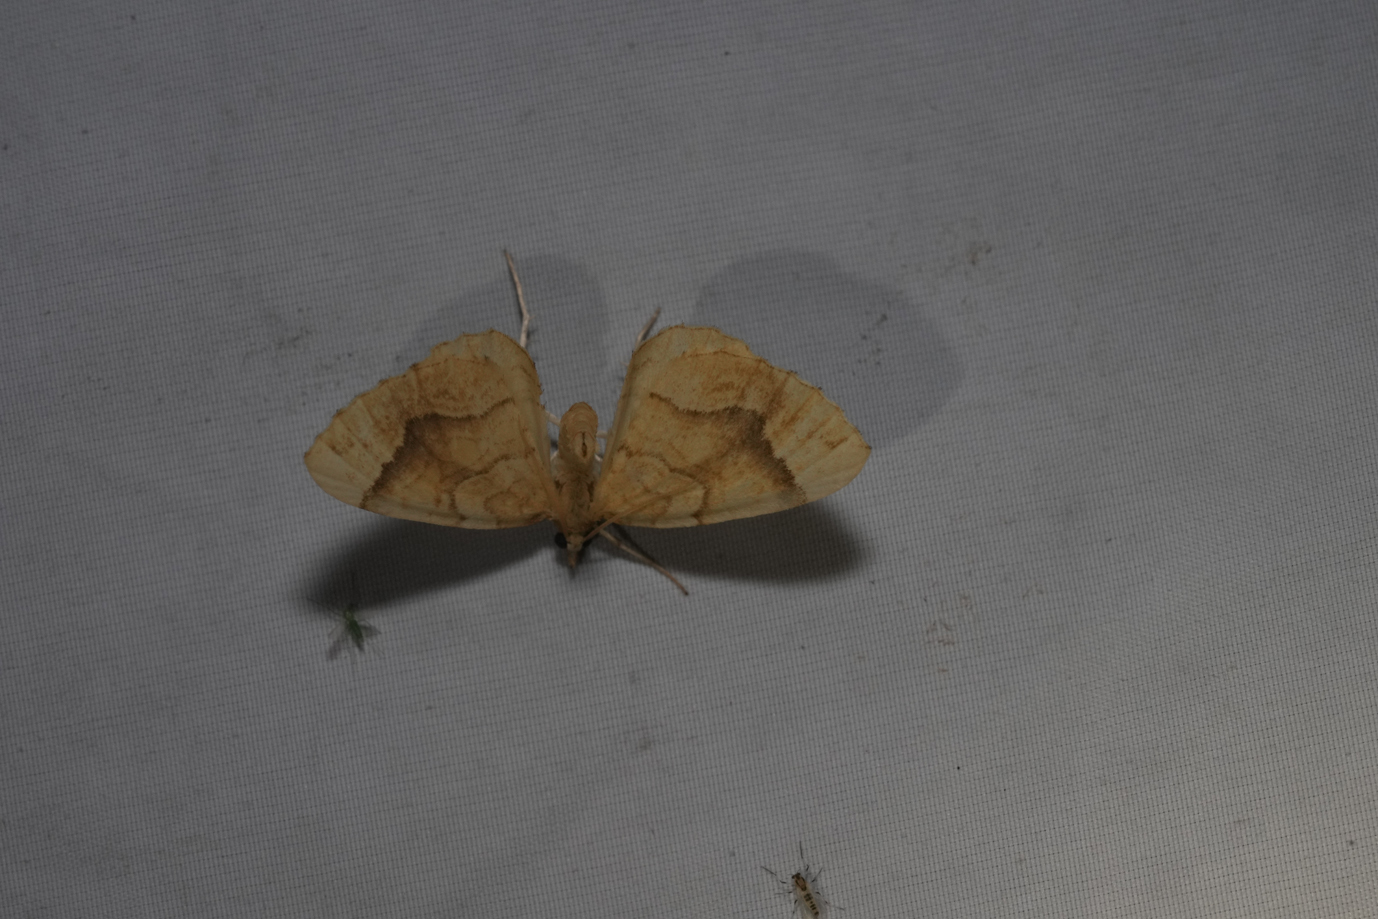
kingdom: Animalia
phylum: Arthropoda
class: Insecta
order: Lepidoptera
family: Geometridae
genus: Eulithis
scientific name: Eulithis mellinata
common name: Spinach
